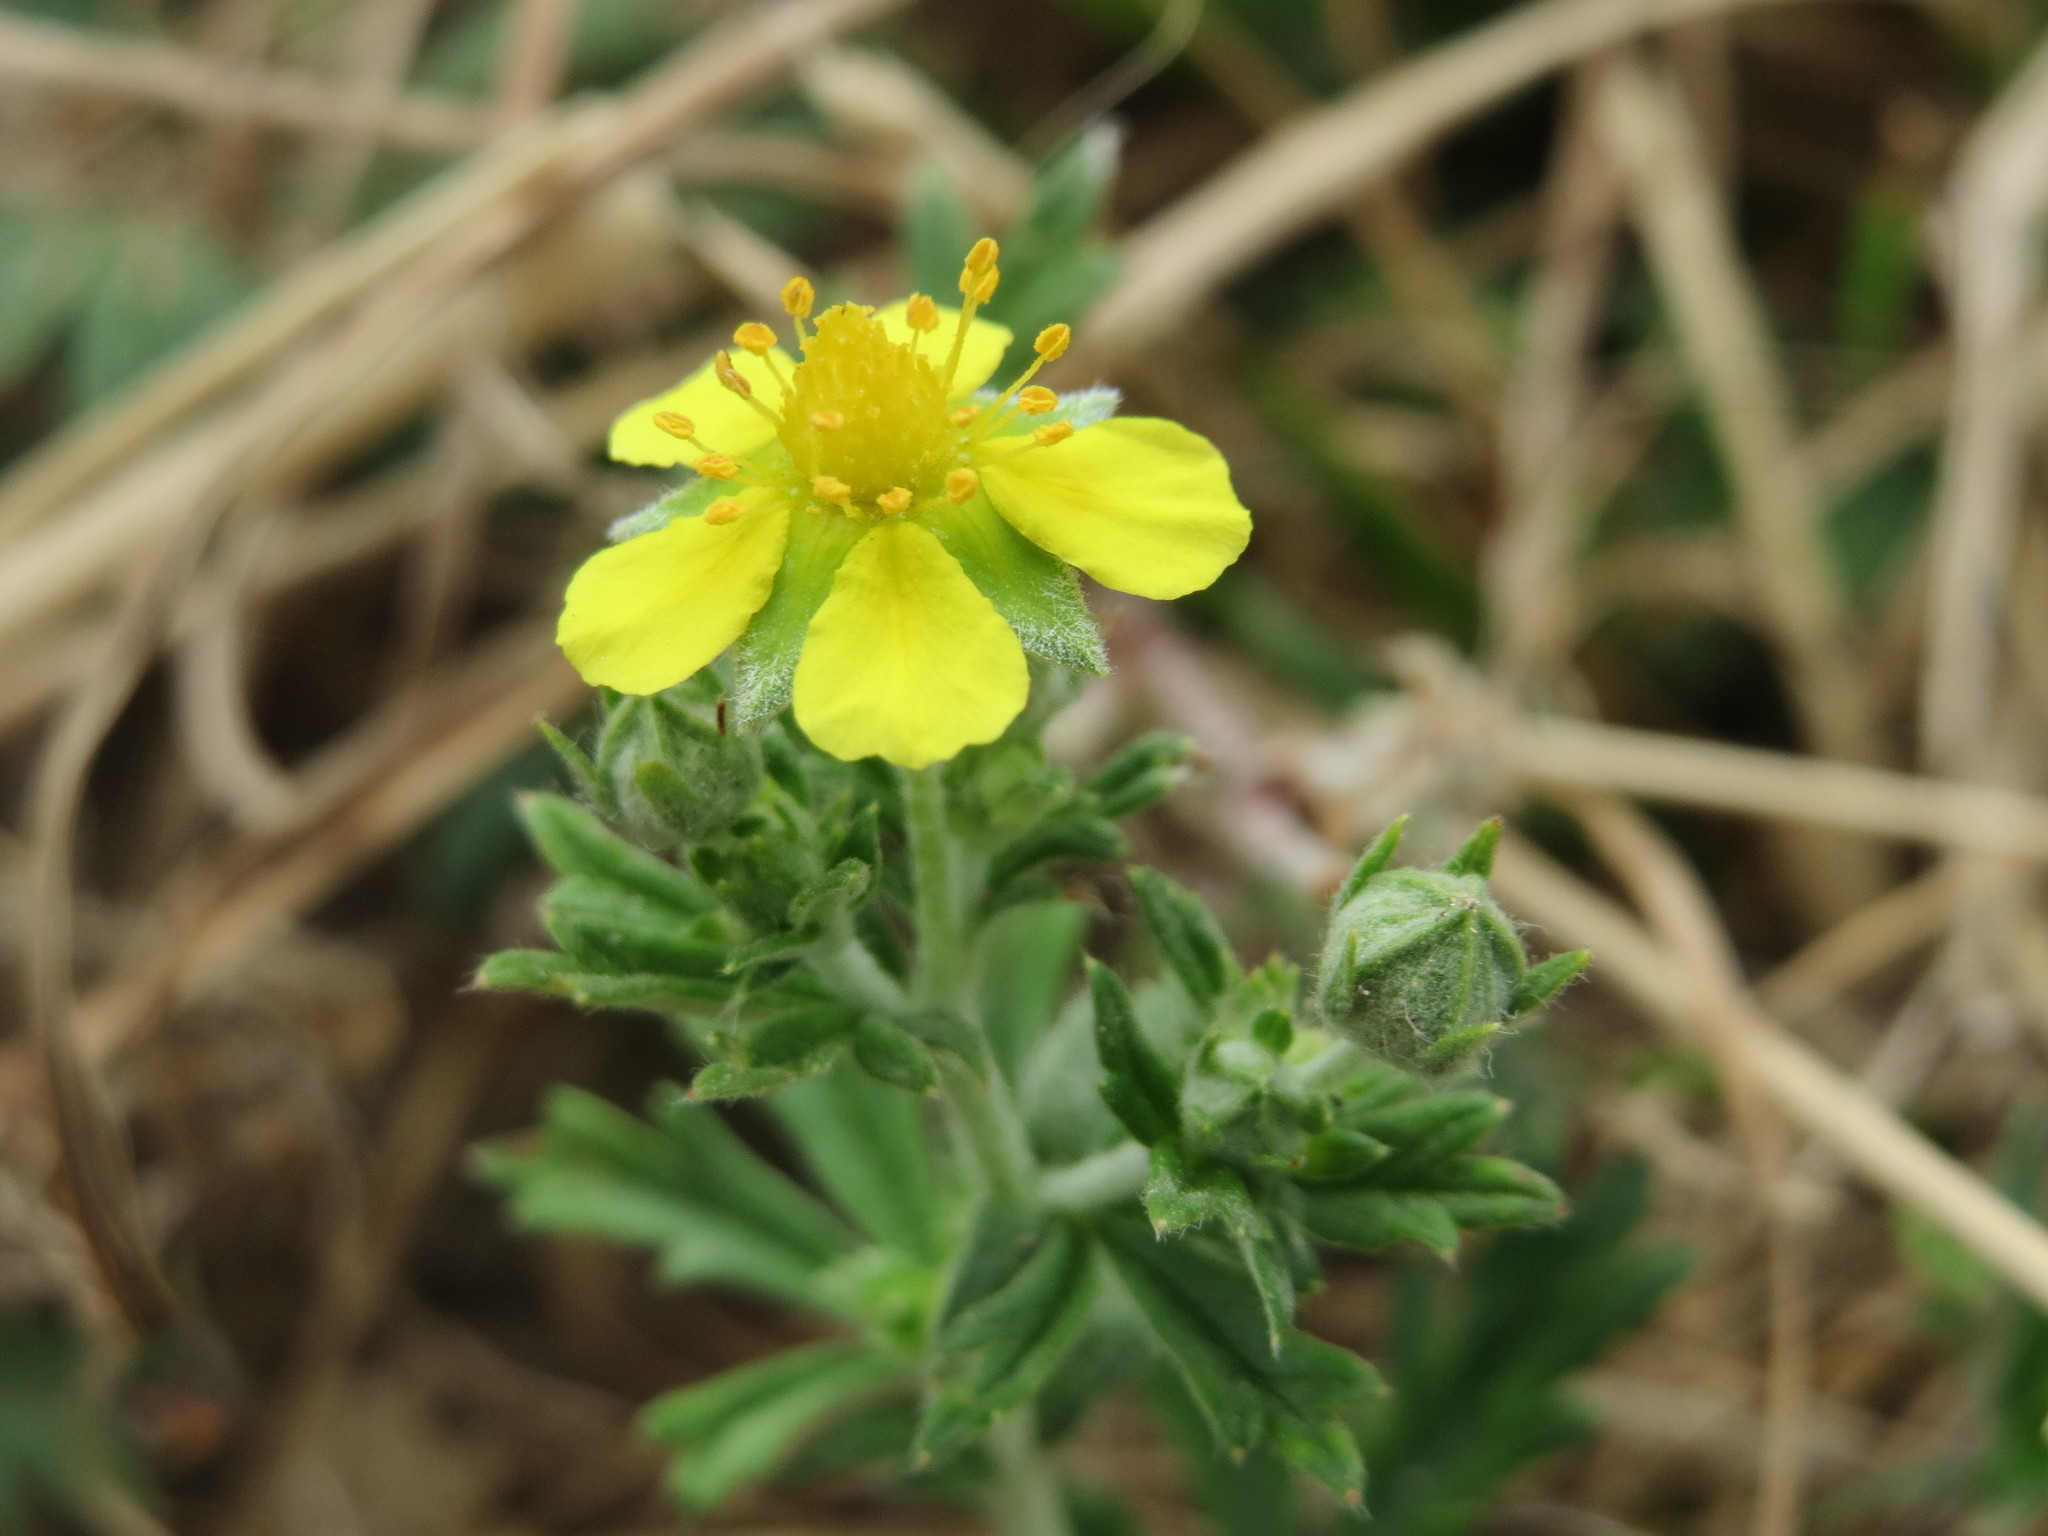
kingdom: Plantae
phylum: Tracheophyta
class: Magnoliopsida
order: Rosales
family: Rosaceae
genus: Potentilla
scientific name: Potentilla argentea
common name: Hoary cinquefoil
